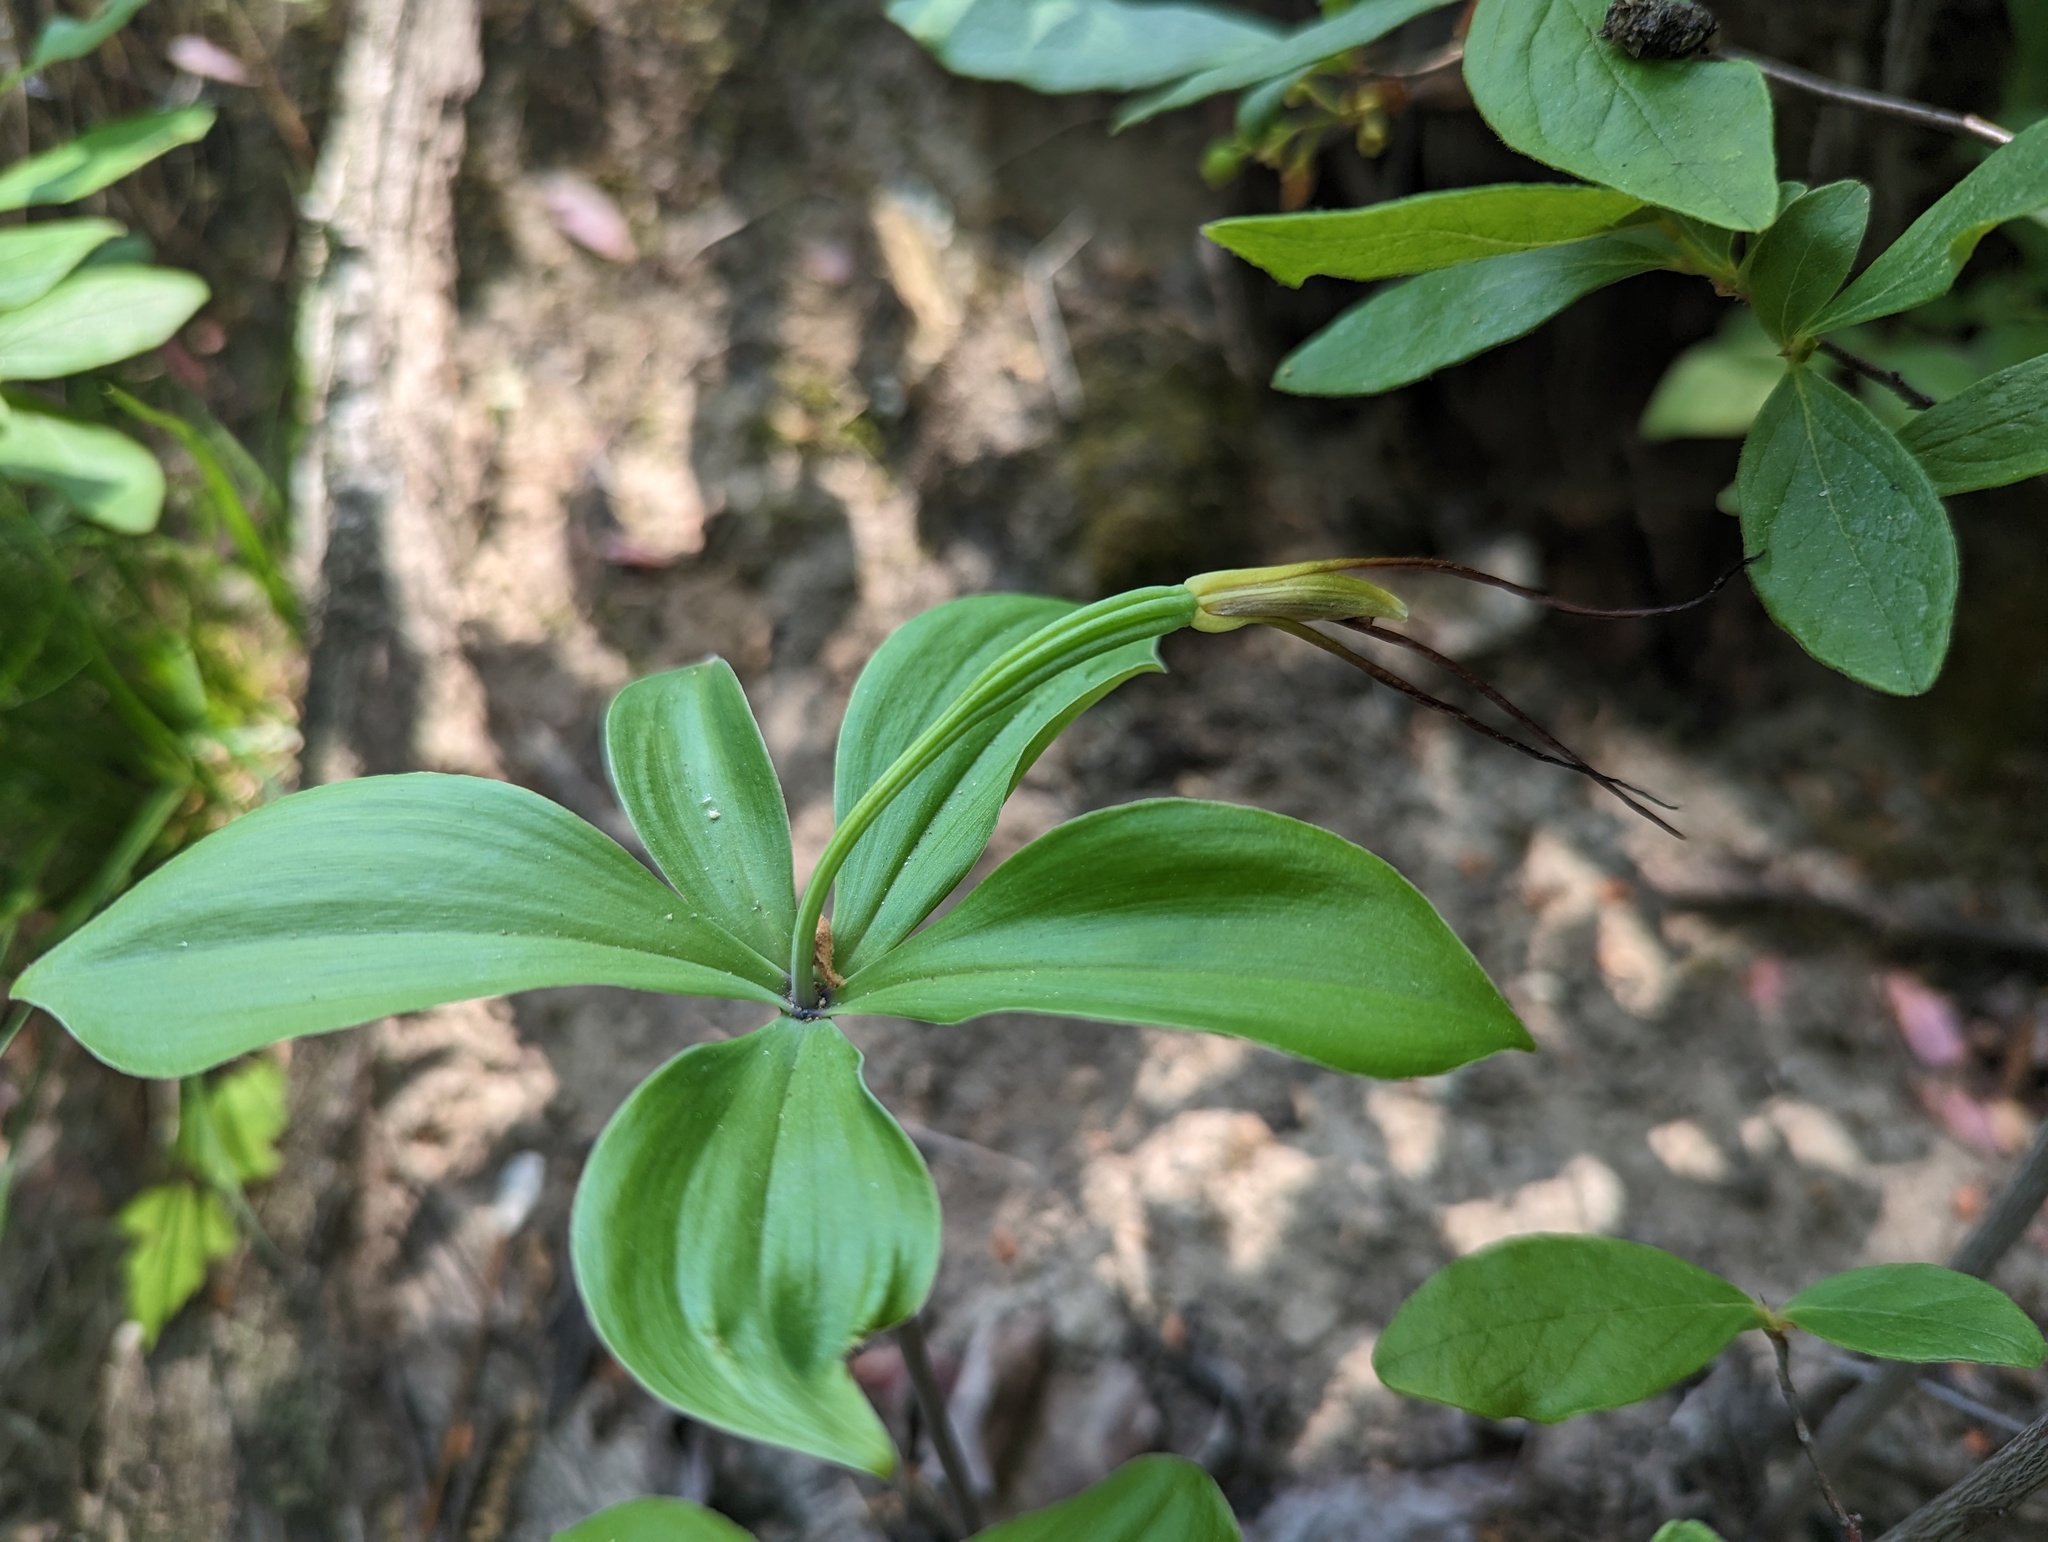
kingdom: Plantae
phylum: Tracheophyta
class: Liliopsida
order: Asparagales
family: Orchidaceae
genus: Isotria
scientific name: Isotria verticillata
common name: Large whorled pogonia
